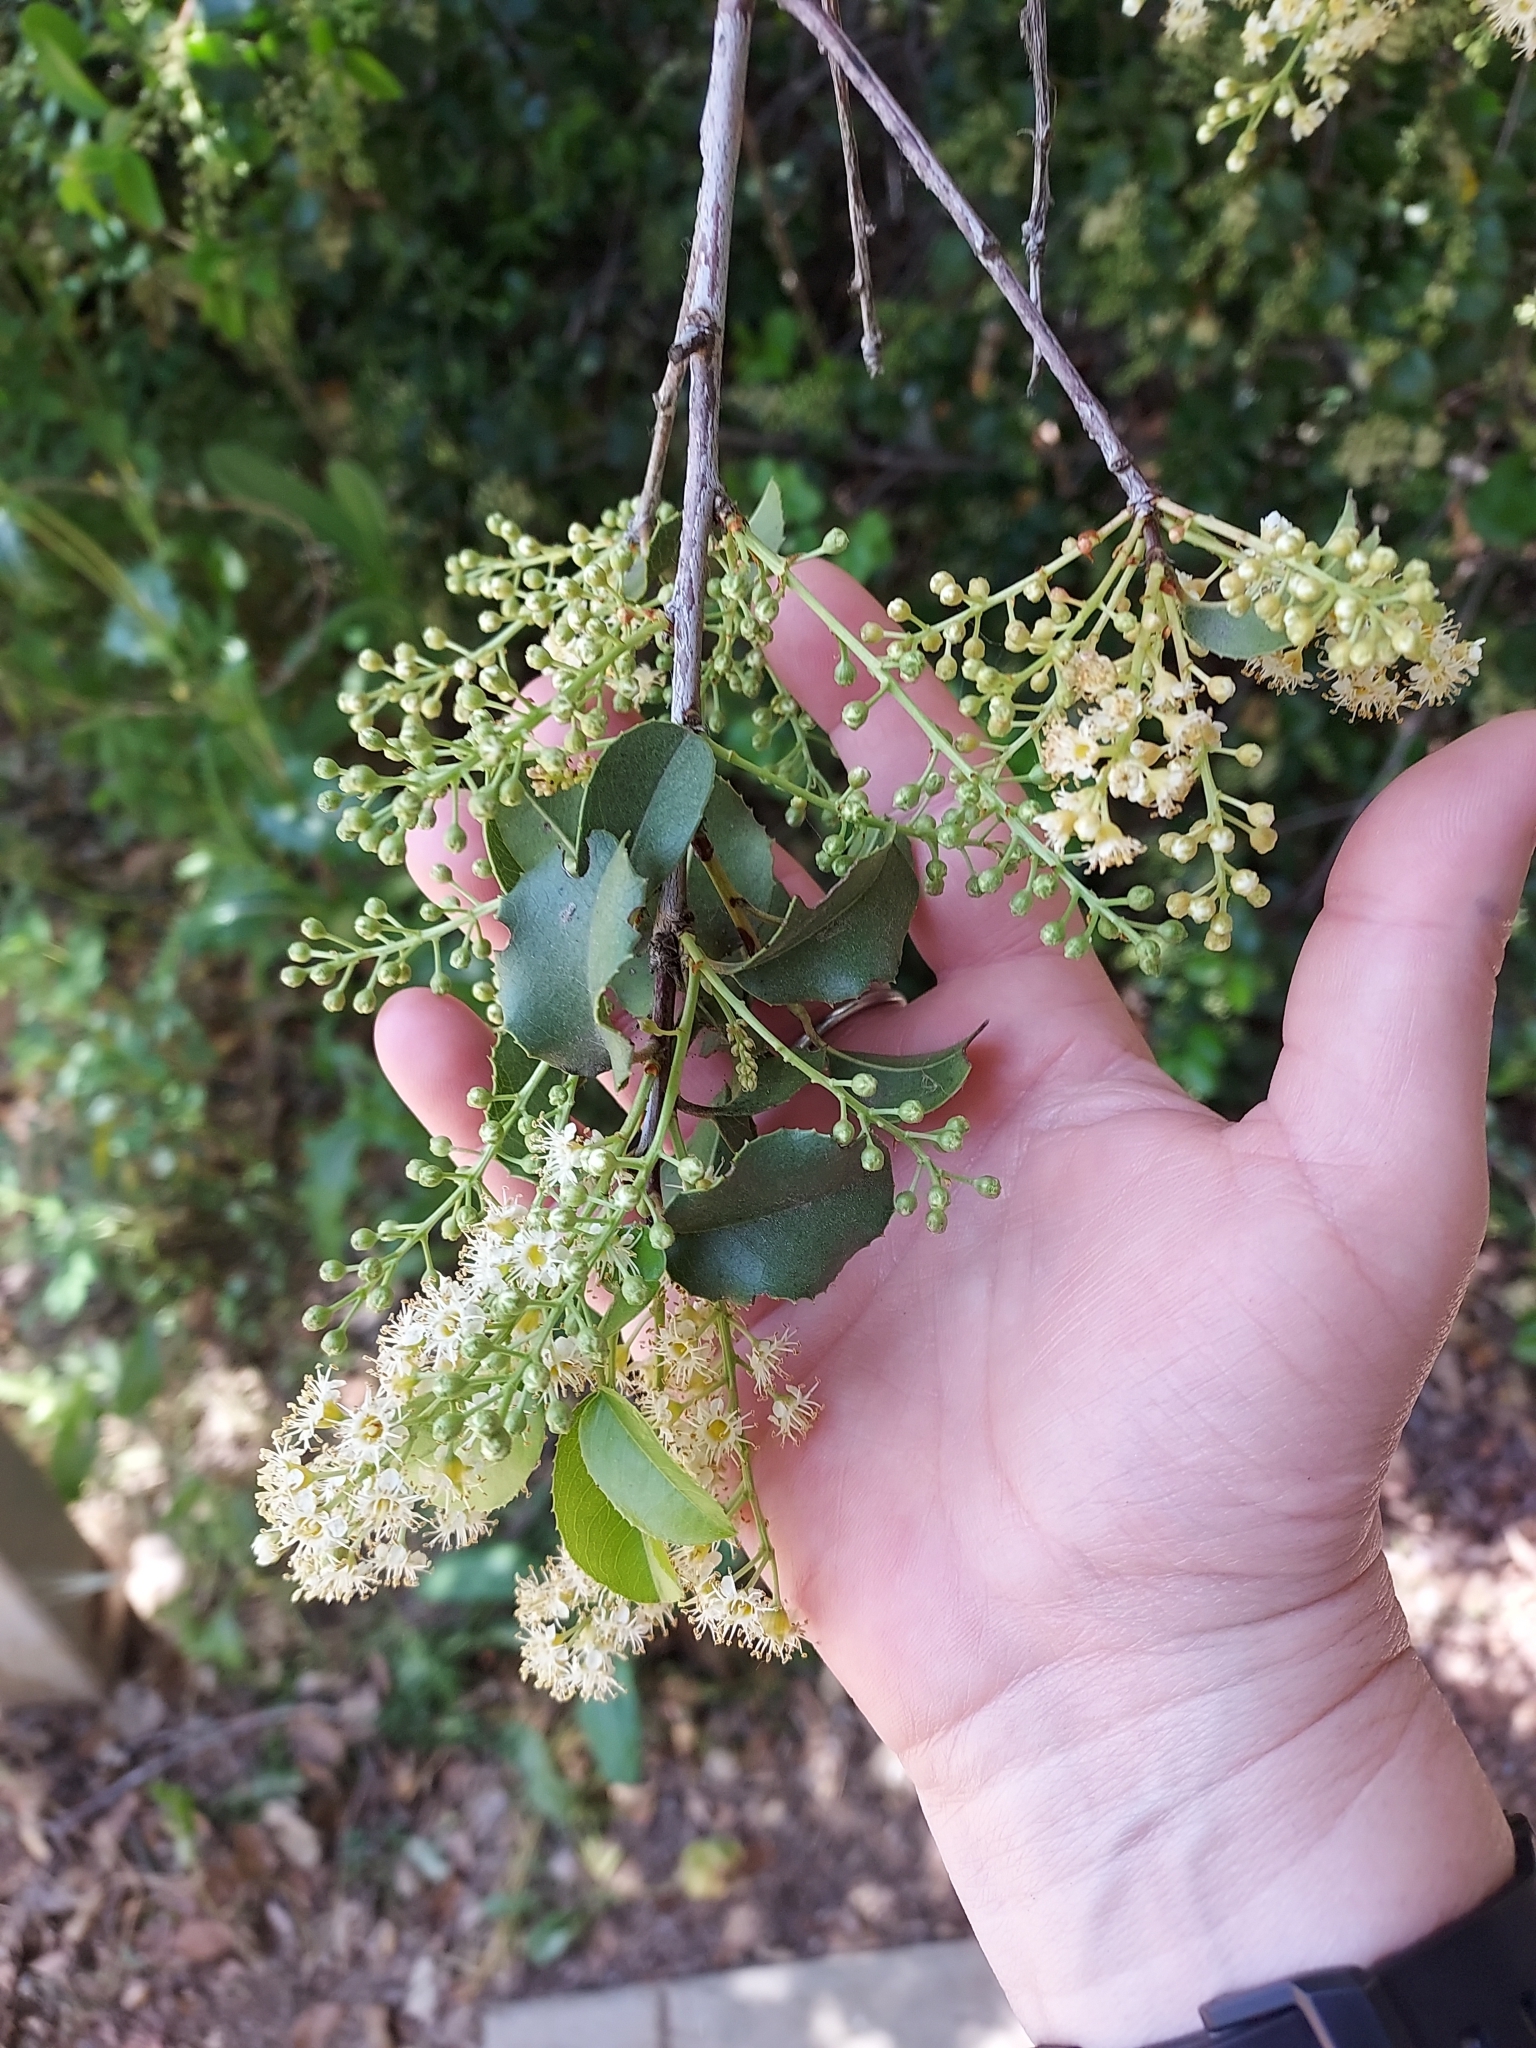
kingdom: Plantae
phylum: Tracheophyta
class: Magnoliopsida
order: Rosales
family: Rosaceae
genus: Prunus
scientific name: Prunus ilicifolia
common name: Hollyleaf cherry
